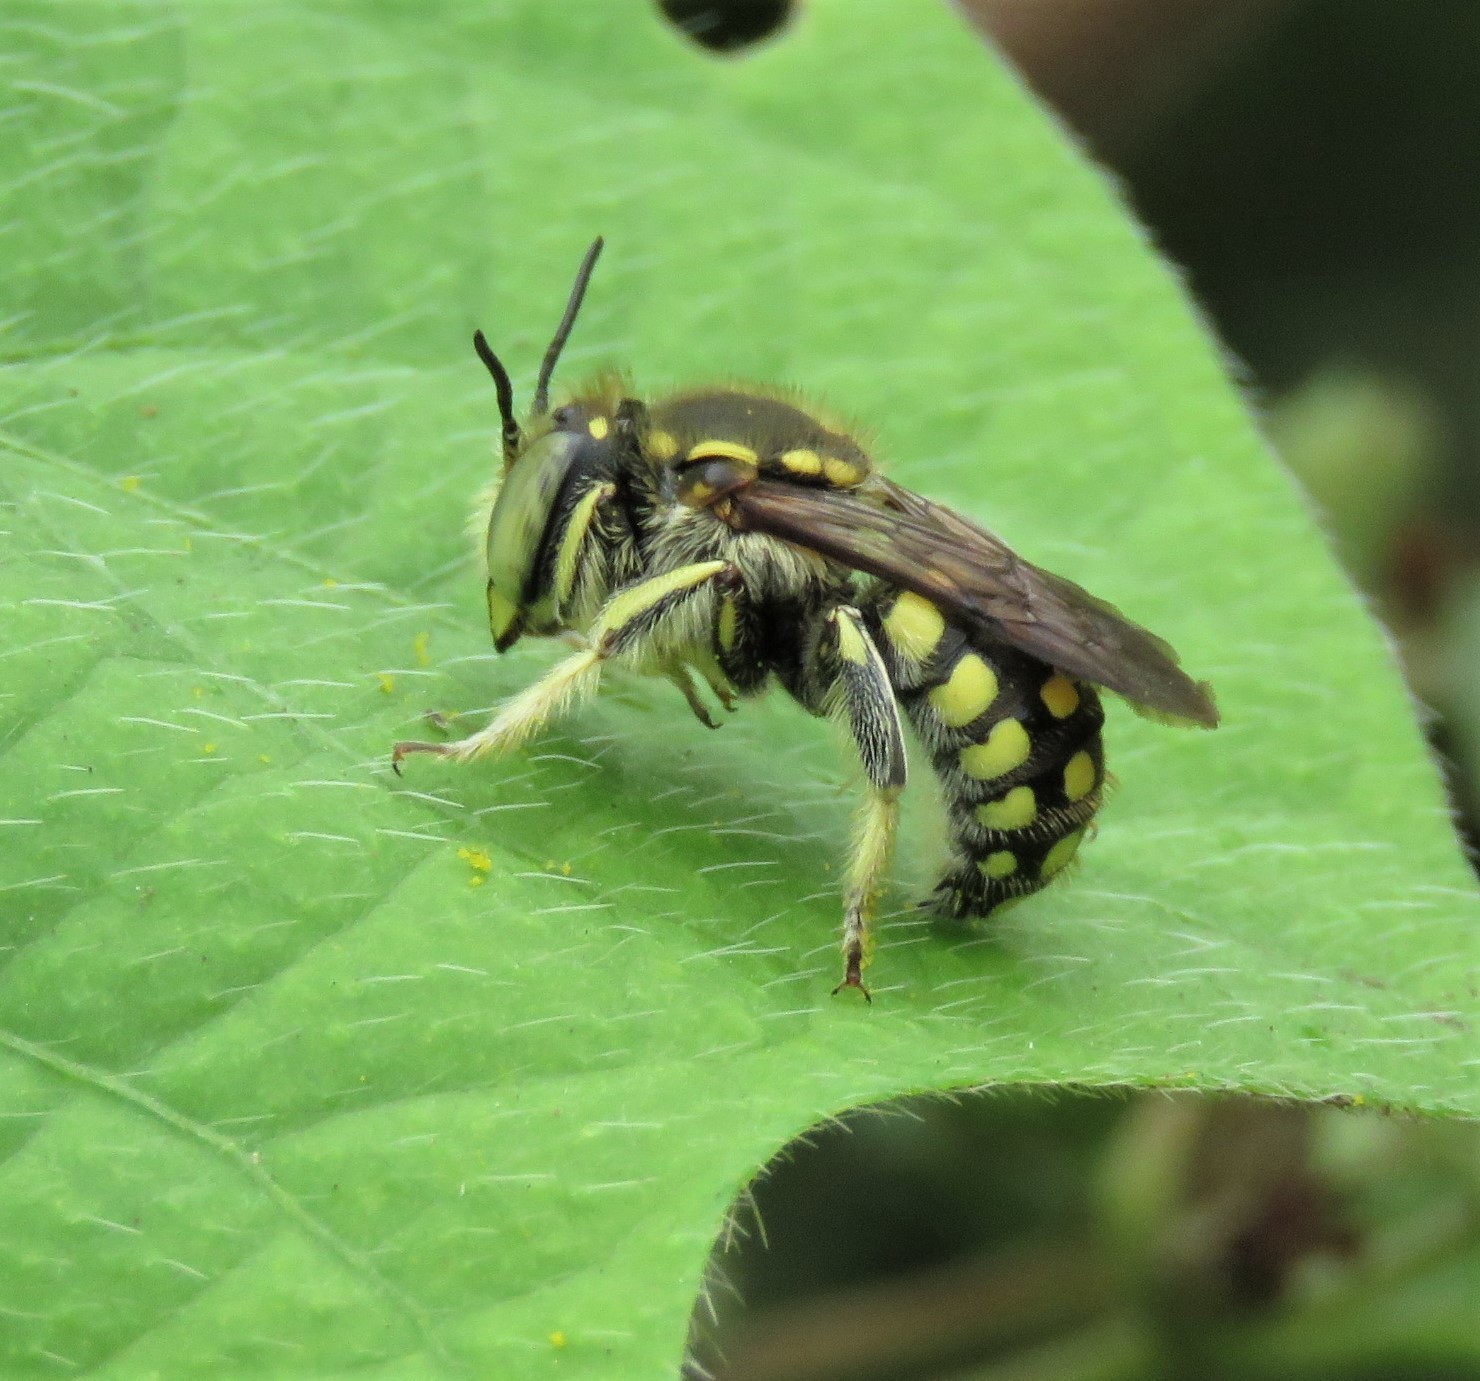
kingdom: Animalia
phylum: Arthropoda
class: Insecta
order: Hymenoptera
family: Megachilidae
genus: Anthidium
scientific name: Anthidium vigintiduopunctatum
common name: Dwarf bee of floreana
